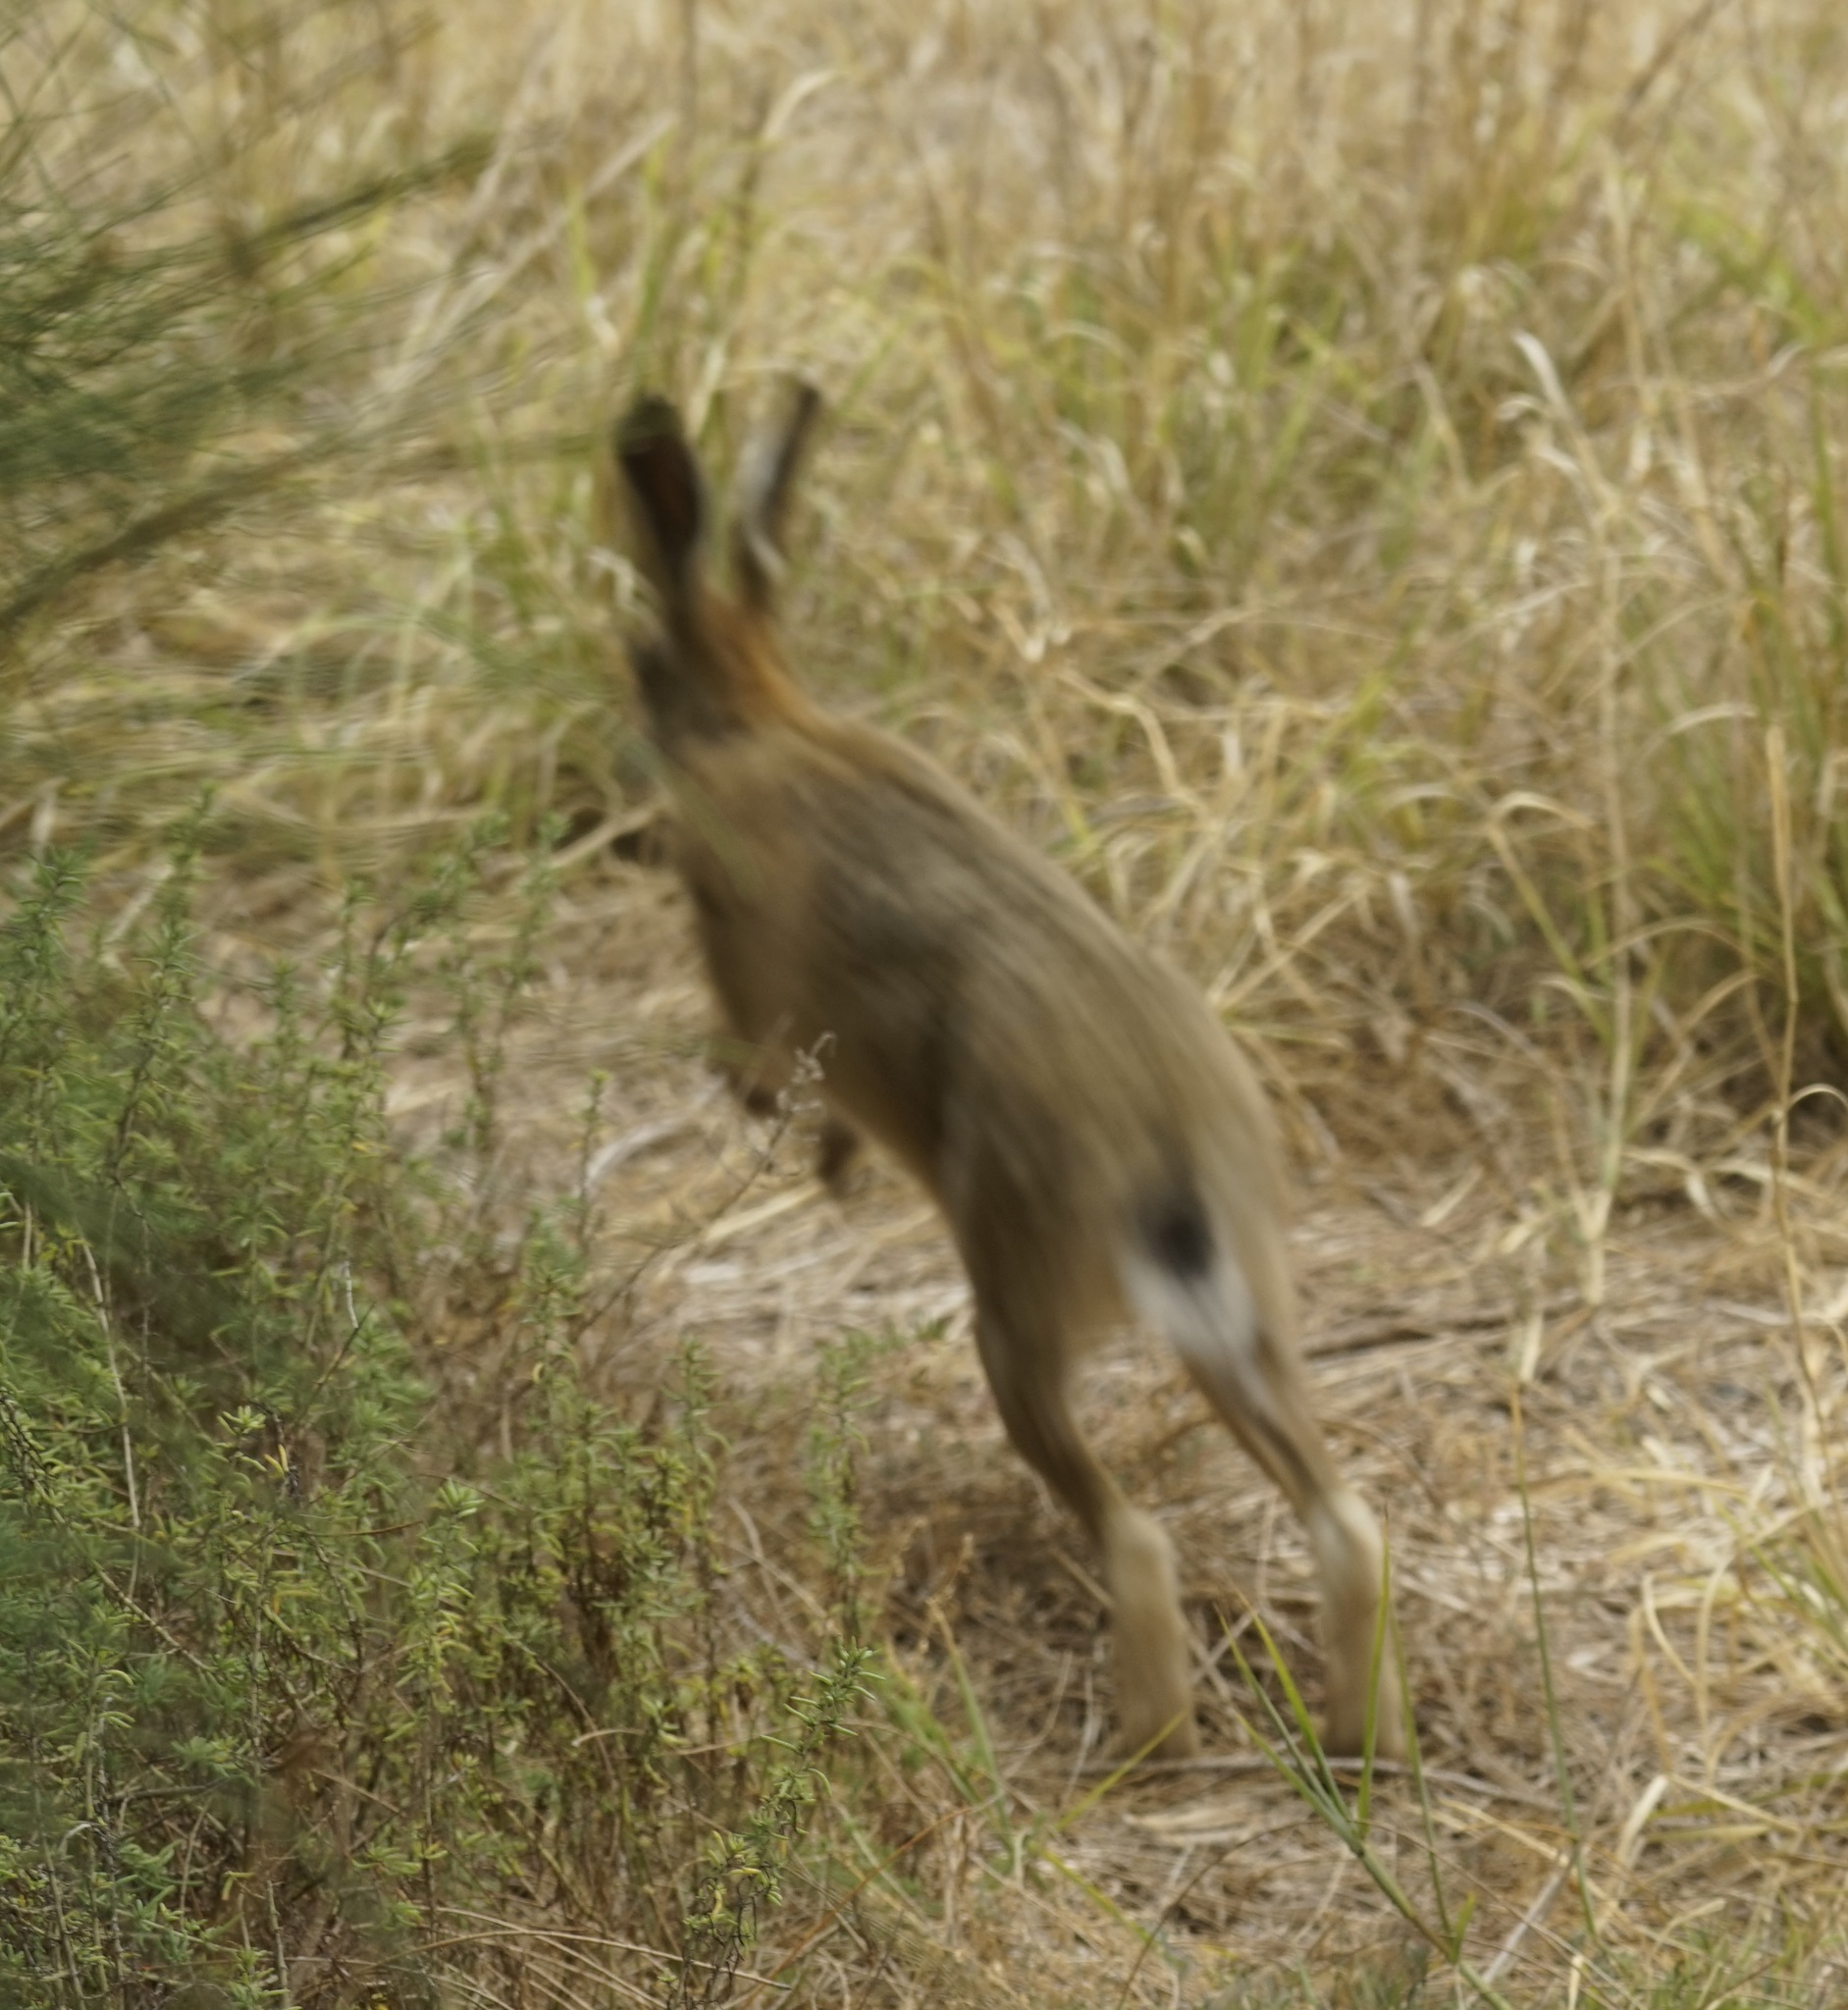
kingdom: Animalia
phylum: Chordata
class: Mammalia
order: Lagomorpha
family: Leporidae
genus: Lepus
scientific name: Lepus europaeus
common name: European hare
